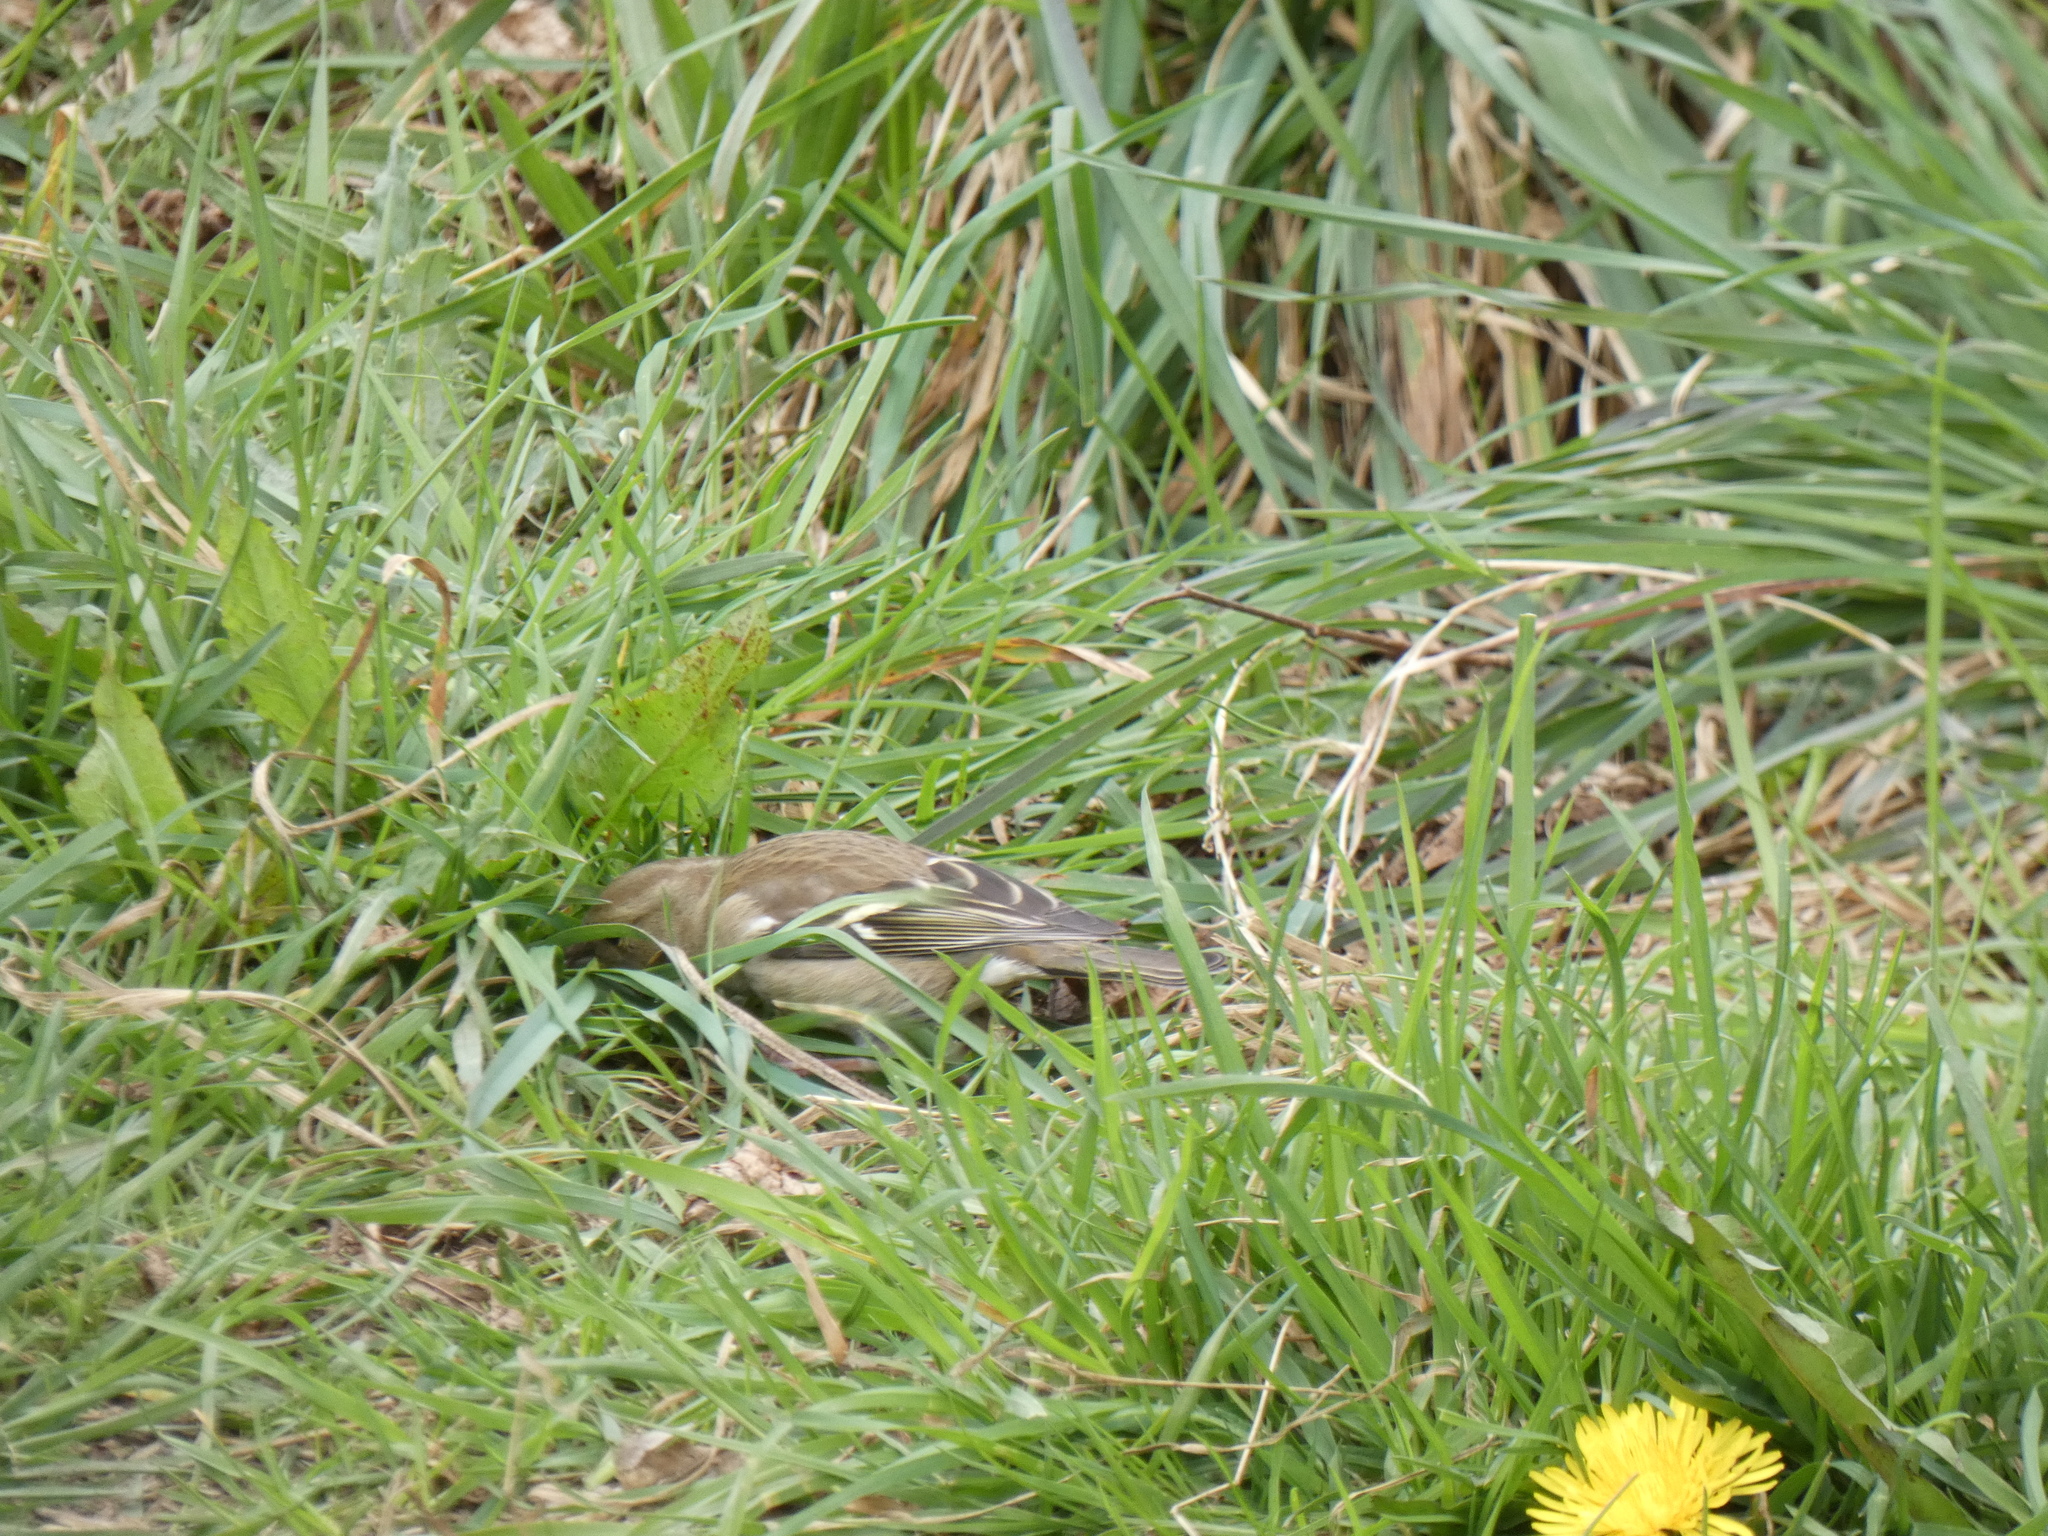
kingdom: Animalia
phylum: Chordata
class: Aves
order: Passeriformes
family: Fringillidae
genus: Fringilla
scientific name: Fringilla coelebs
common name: Common chaffinch
